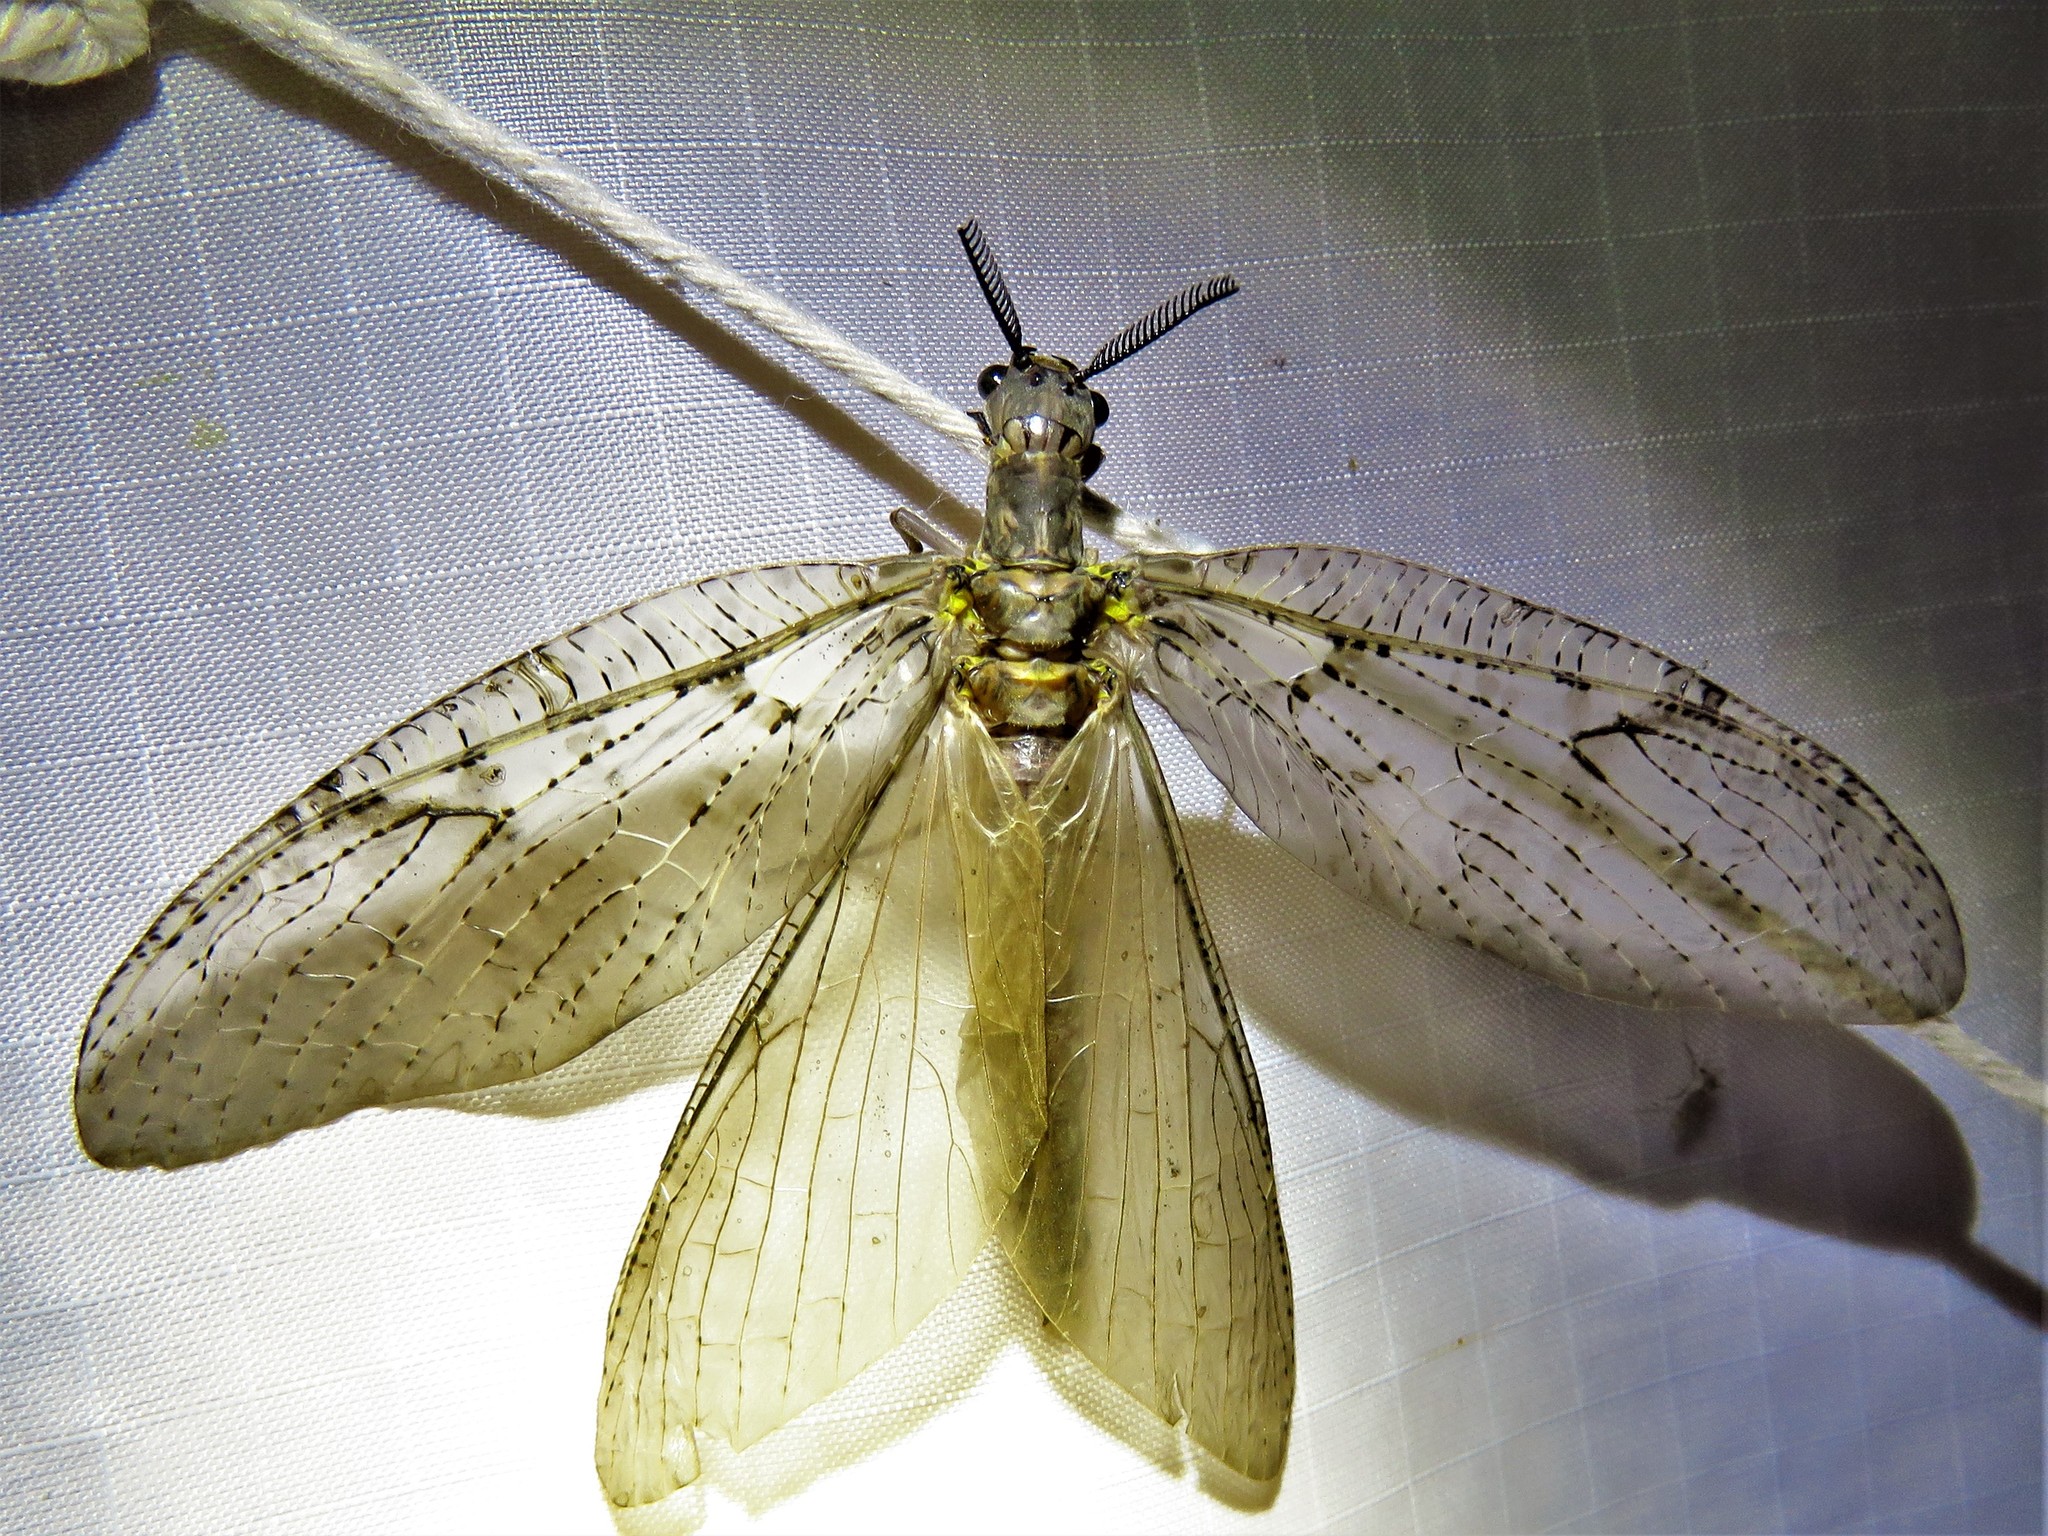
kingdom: Animalia
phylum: Arthropoda
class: Insecta
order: Megaloptera
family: Corydalidae
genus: Chauliodes
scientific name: Chauliodes pectinicornis
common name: Summer fishfly
